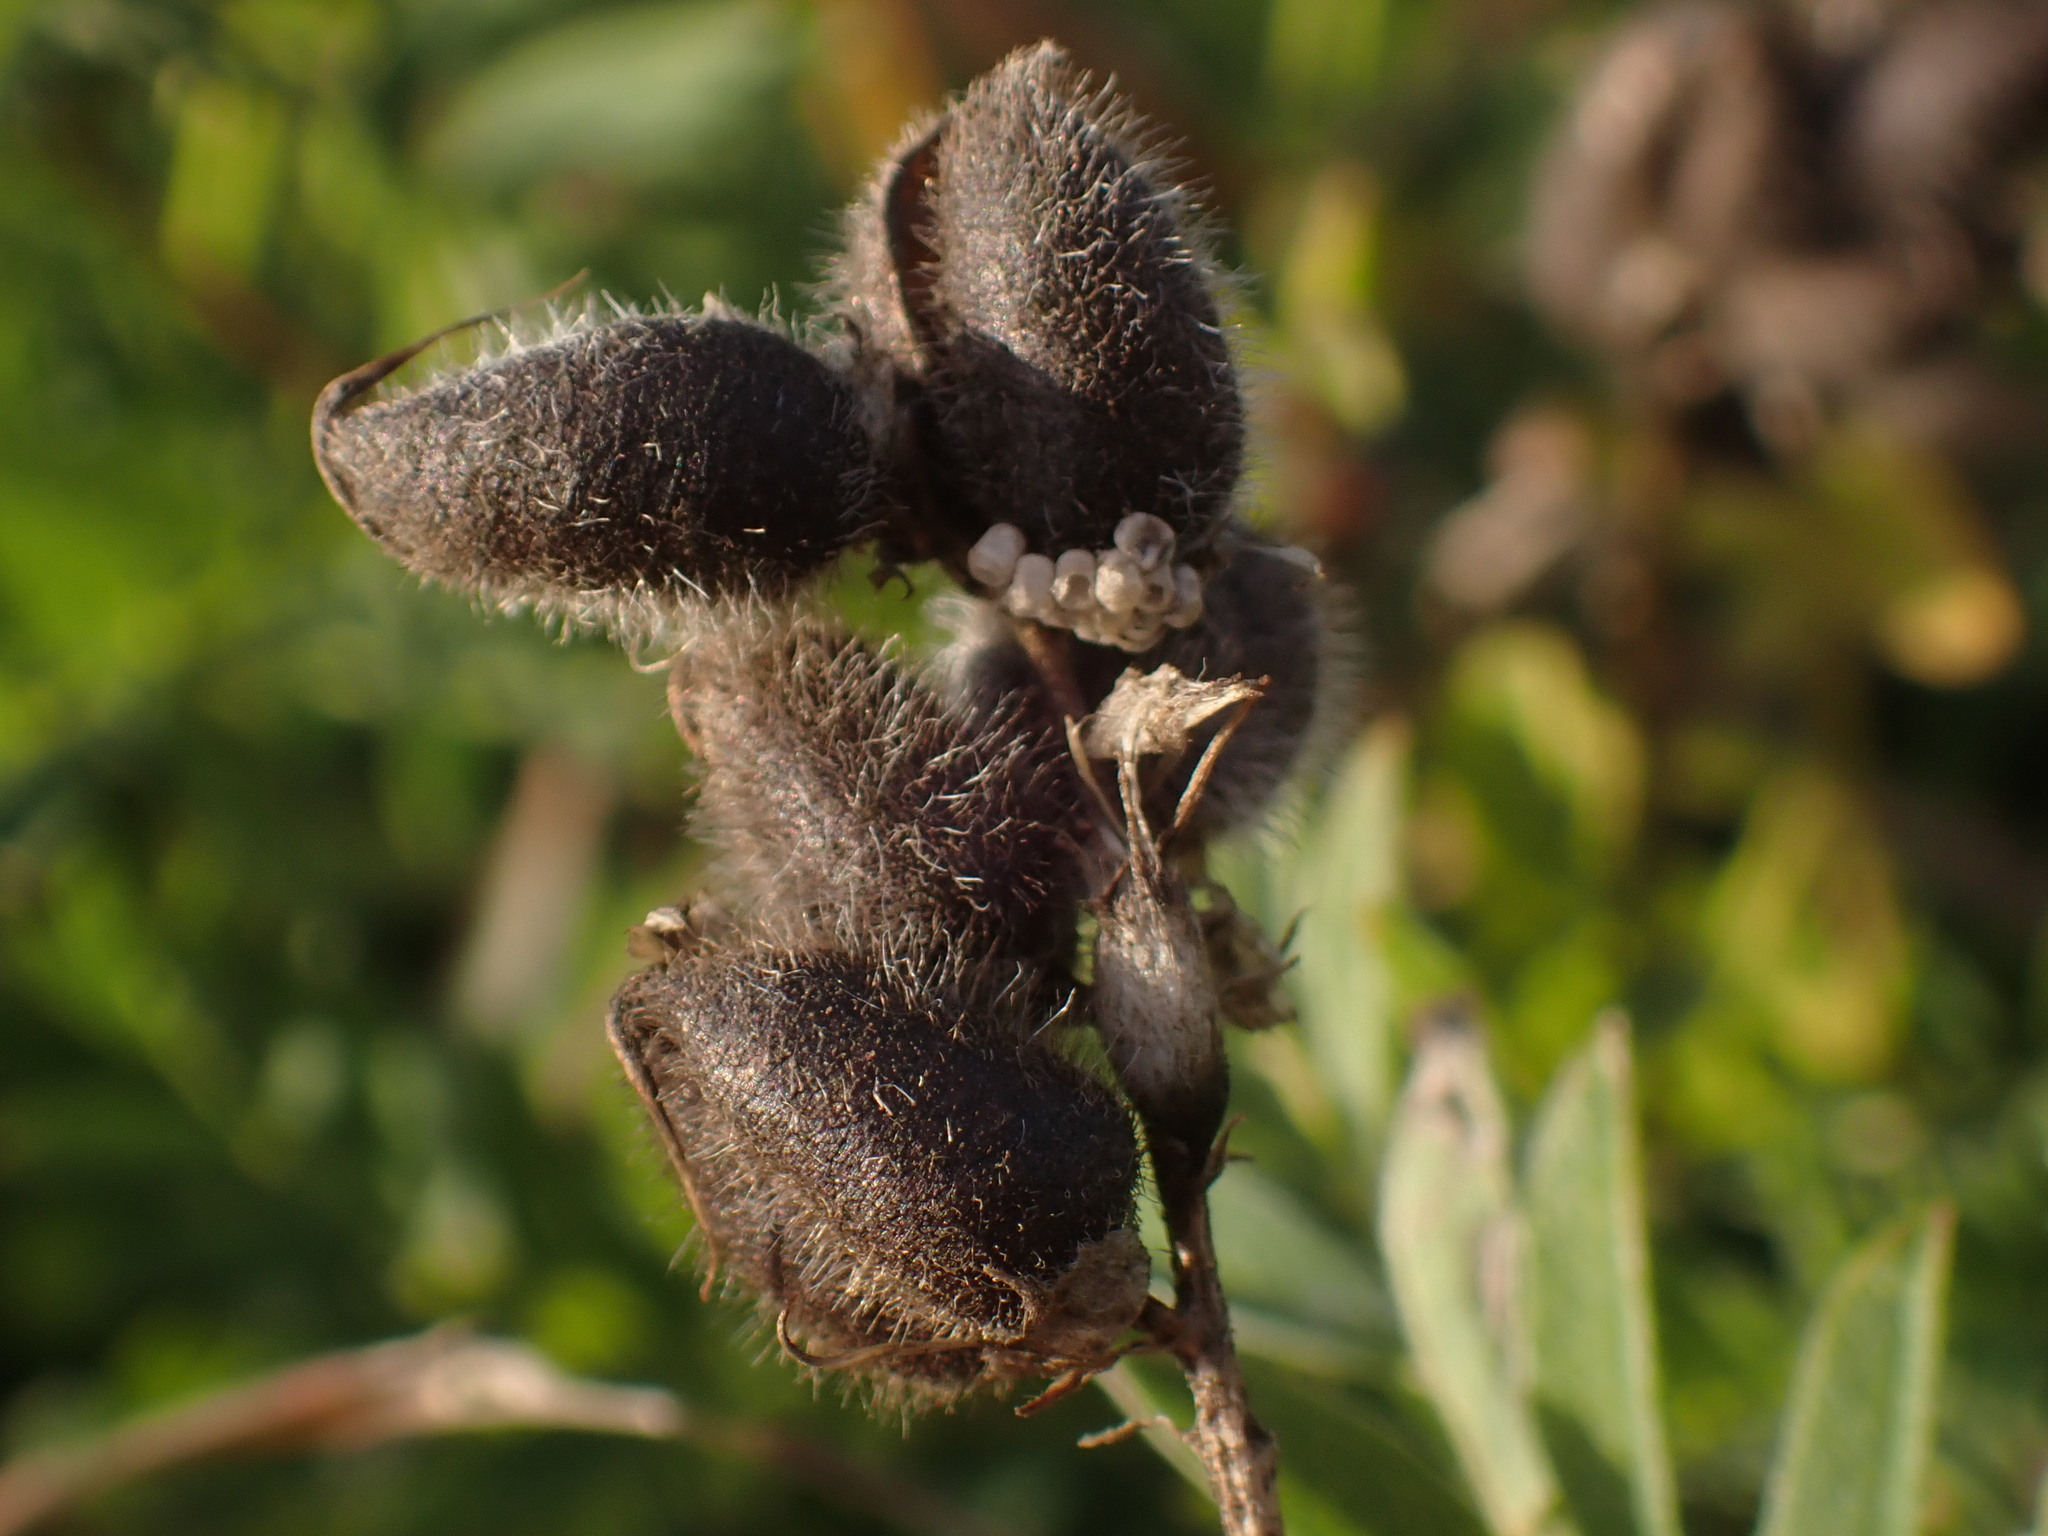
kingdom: Plantae
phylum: Tracheophyta
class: Magnoliopsida
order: Fabales
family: Fabaceae
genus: Astragalus
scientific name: Astragalus cicer
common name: Chick-pea milk-vetch
